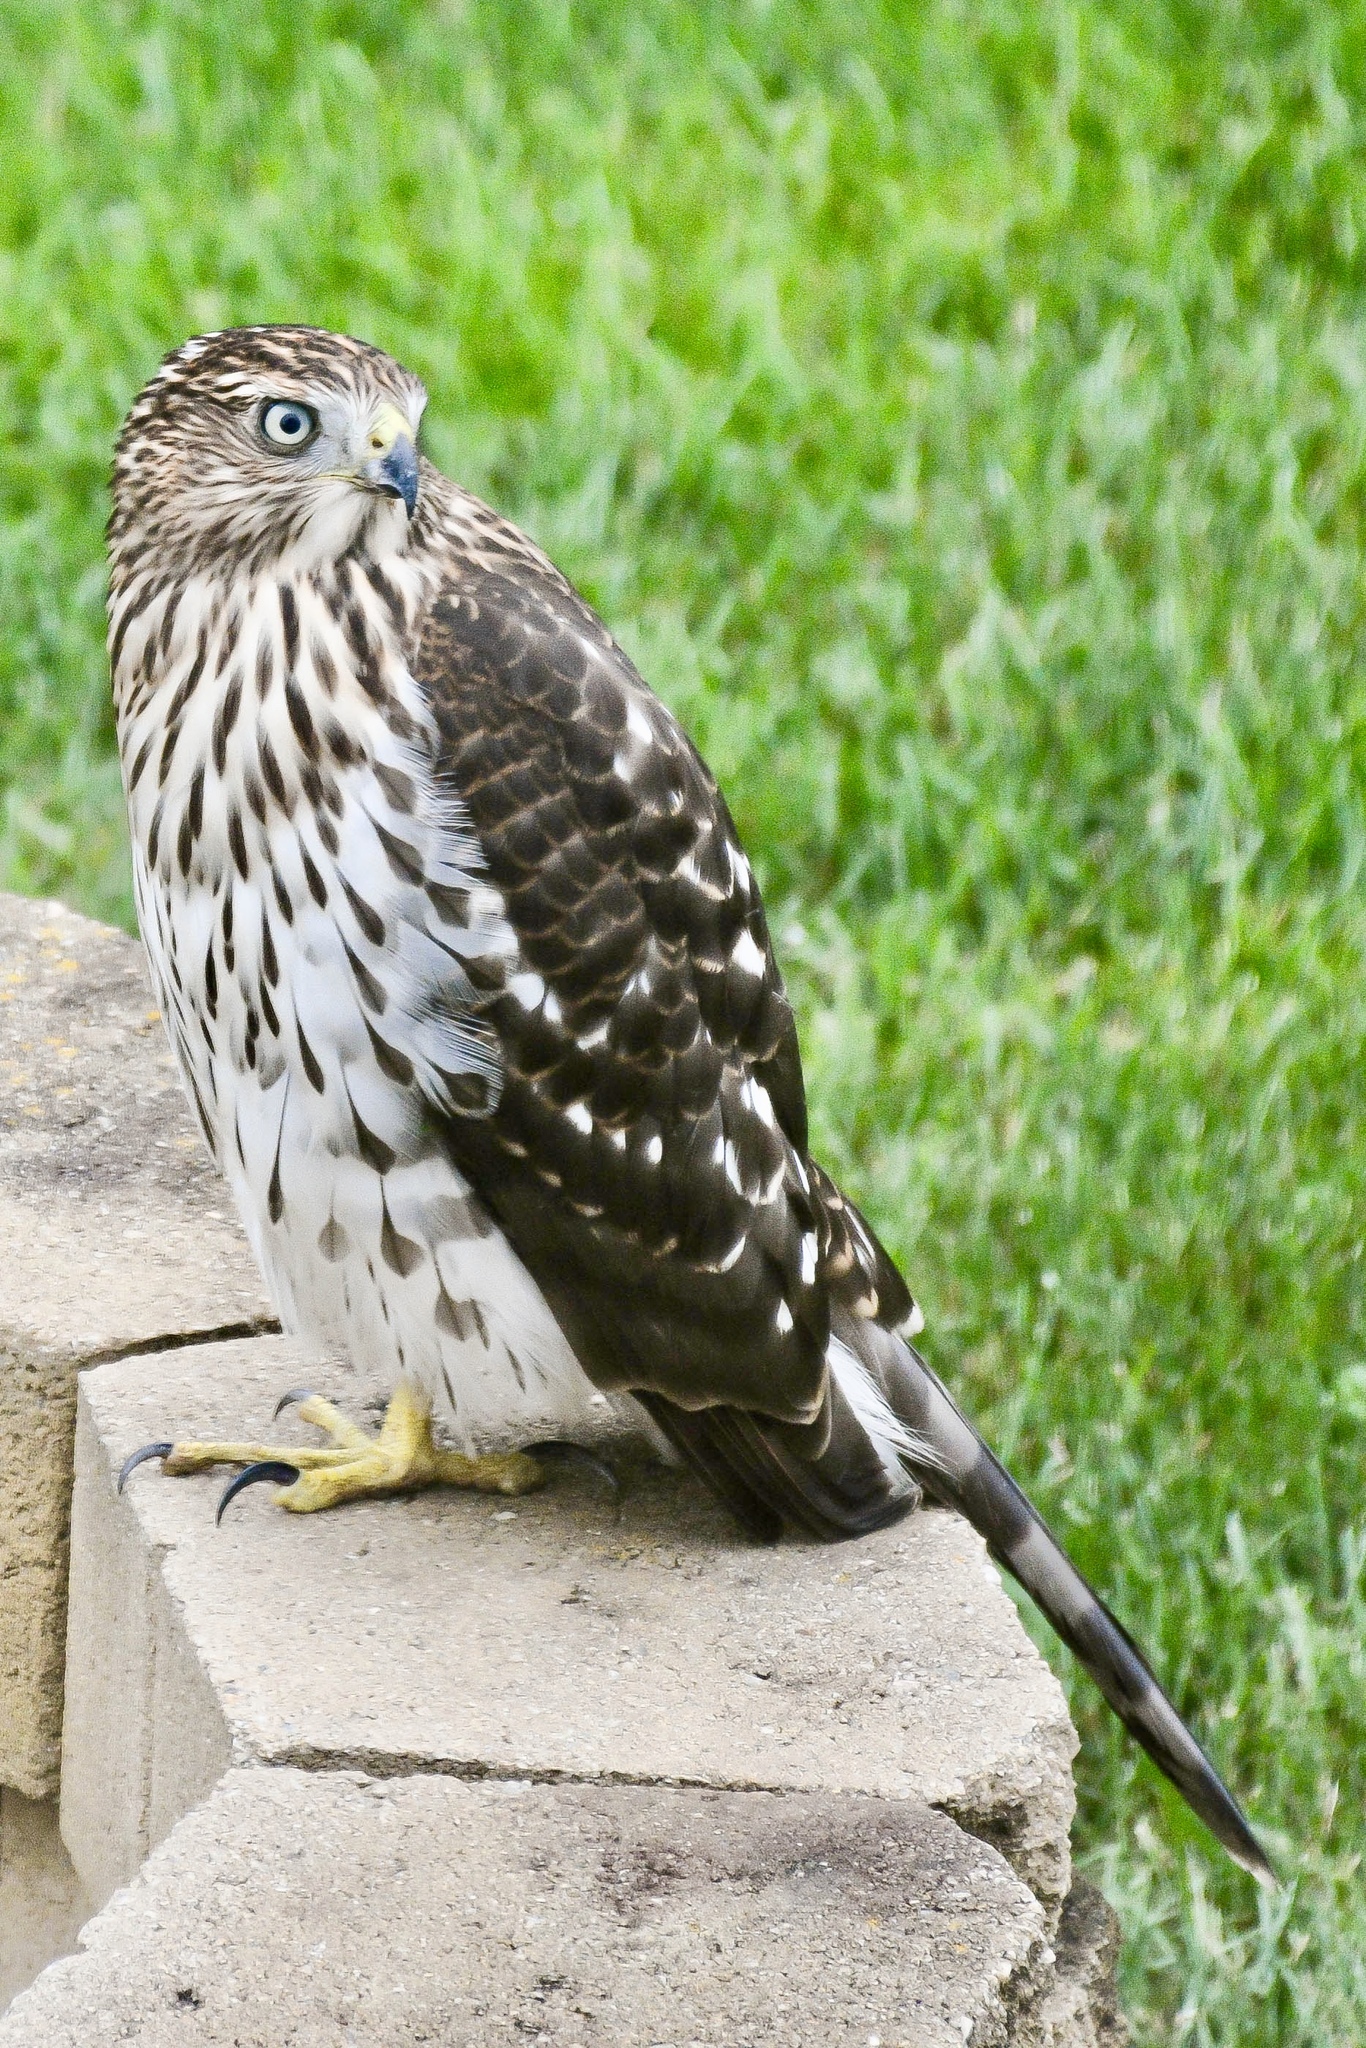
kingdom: Animalia
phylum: Chordata
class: Aves
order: Accipitriformes
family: Accipitridae
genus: Accipiter
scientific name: Accipiter cooperii
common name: Cooper's hawk
